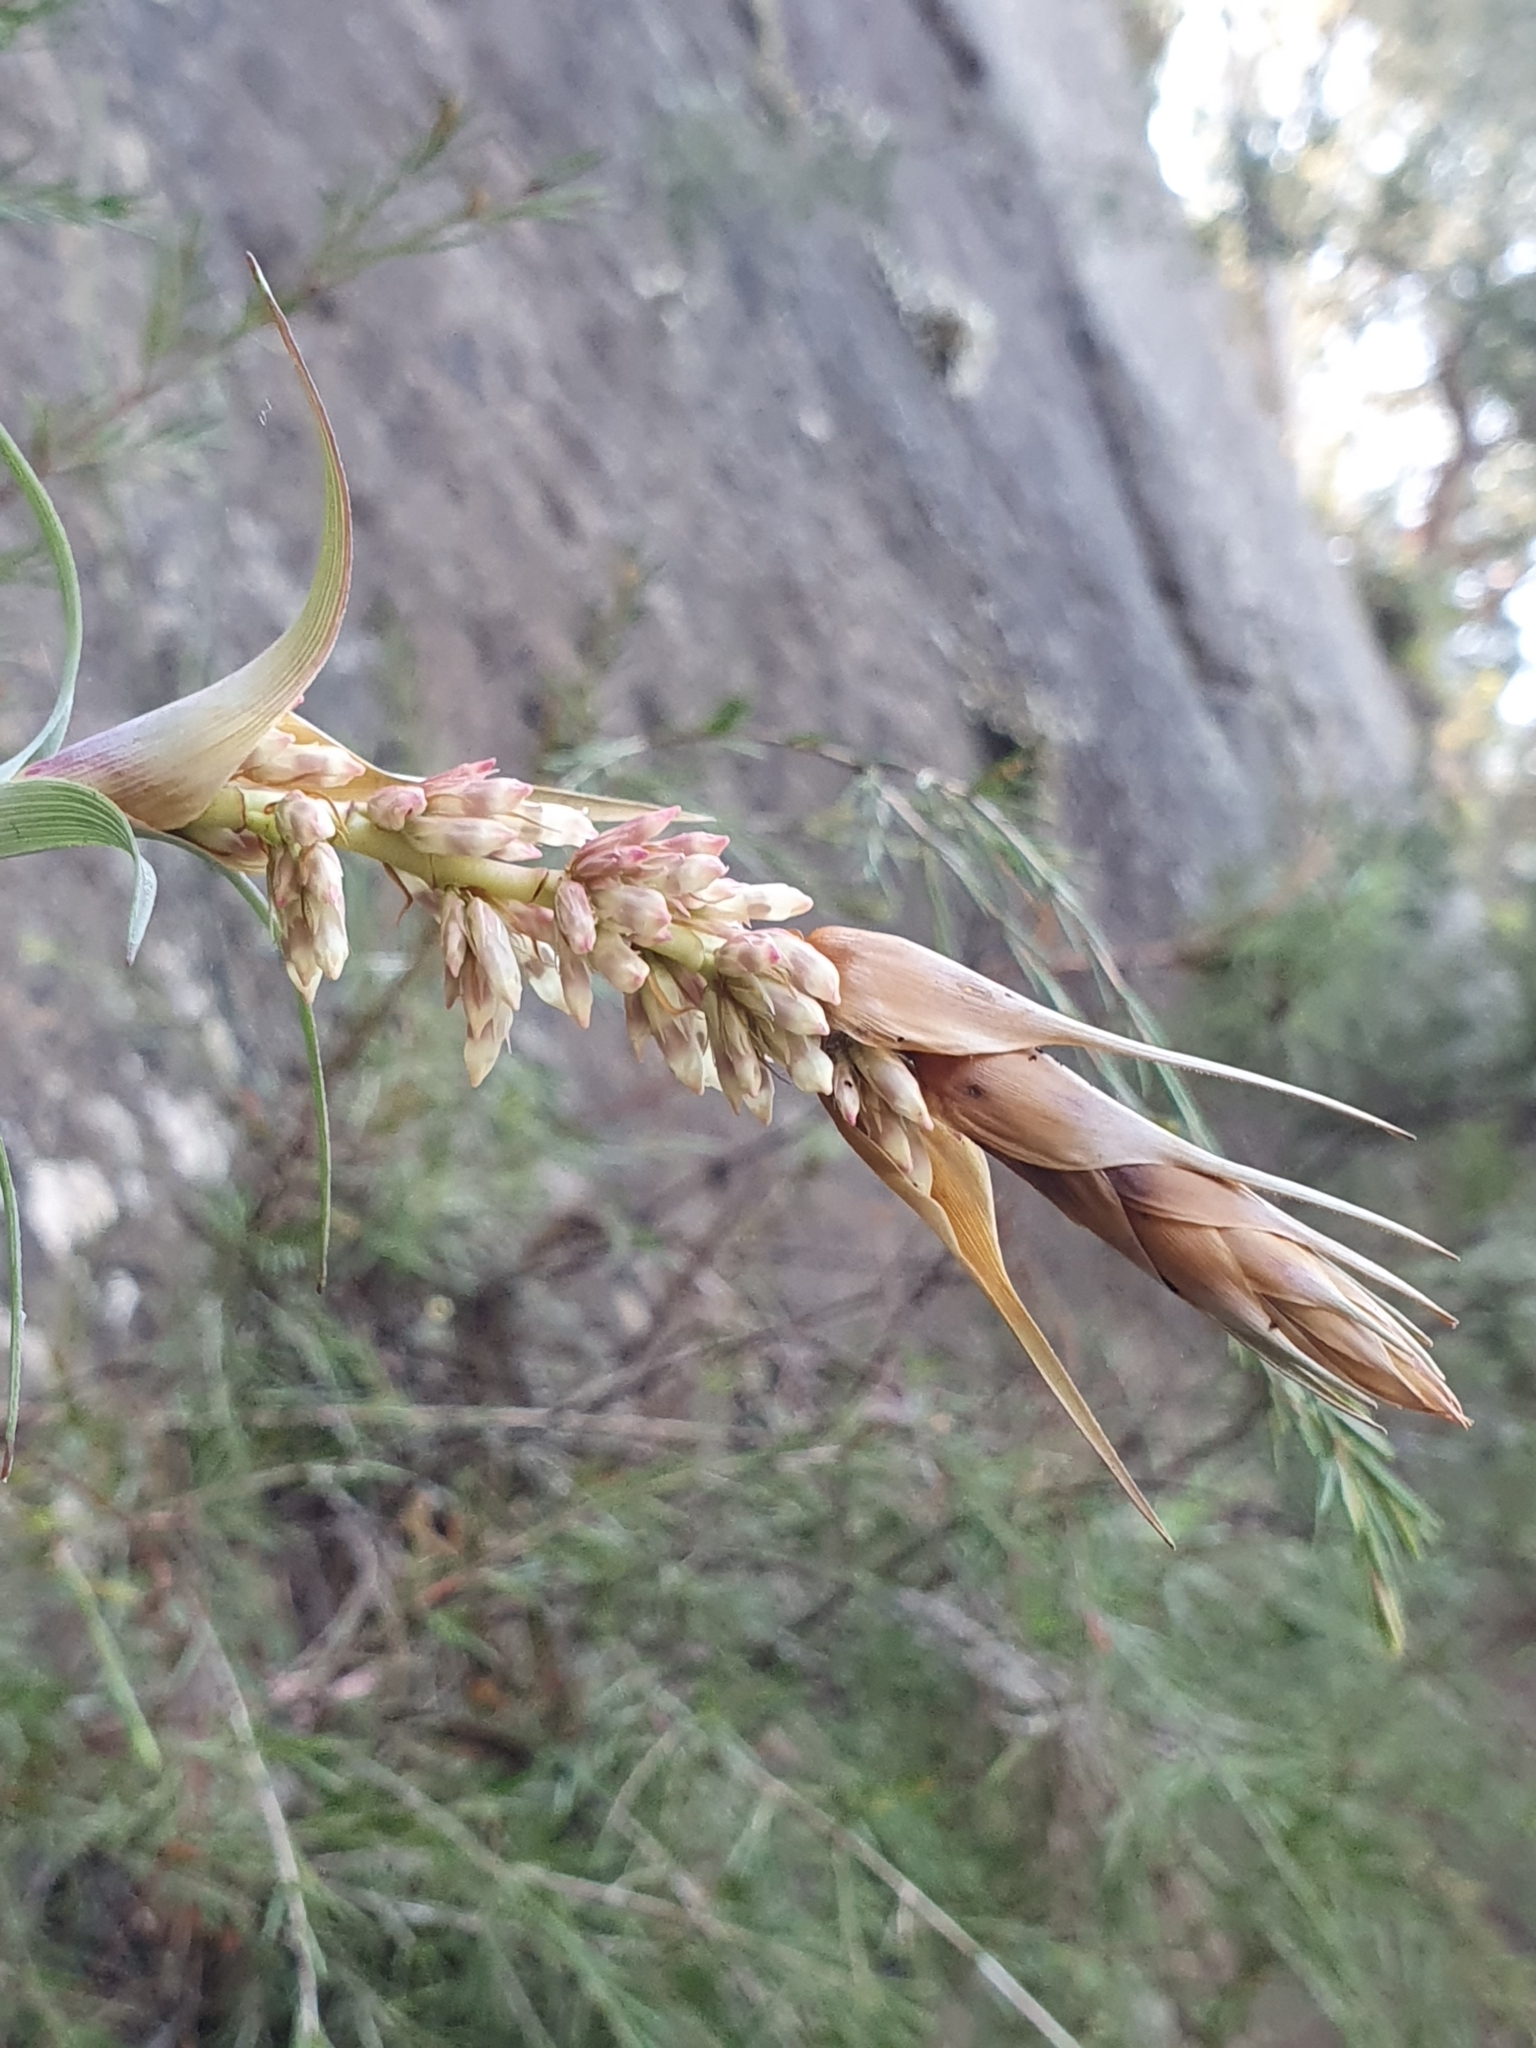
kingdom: Plantae
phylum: Tracheophyta
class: Magnoliopsida
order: Ericales
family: Ericaceae
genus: Dracophyllum
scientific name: Dracophyllum secundum
